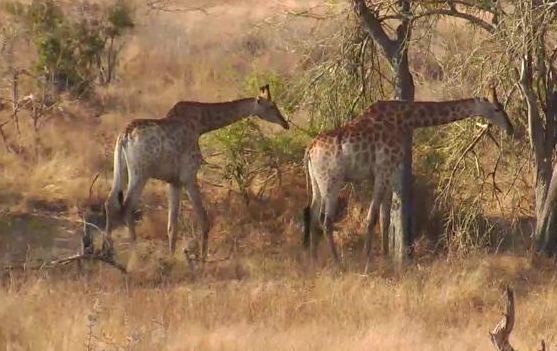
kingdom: Animalia
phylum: Chordata
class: Mammalia
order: Artiodactyla
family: Giraffidae
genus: Giraffa
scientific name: Giraffa giraffa
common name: Southern giraffe
